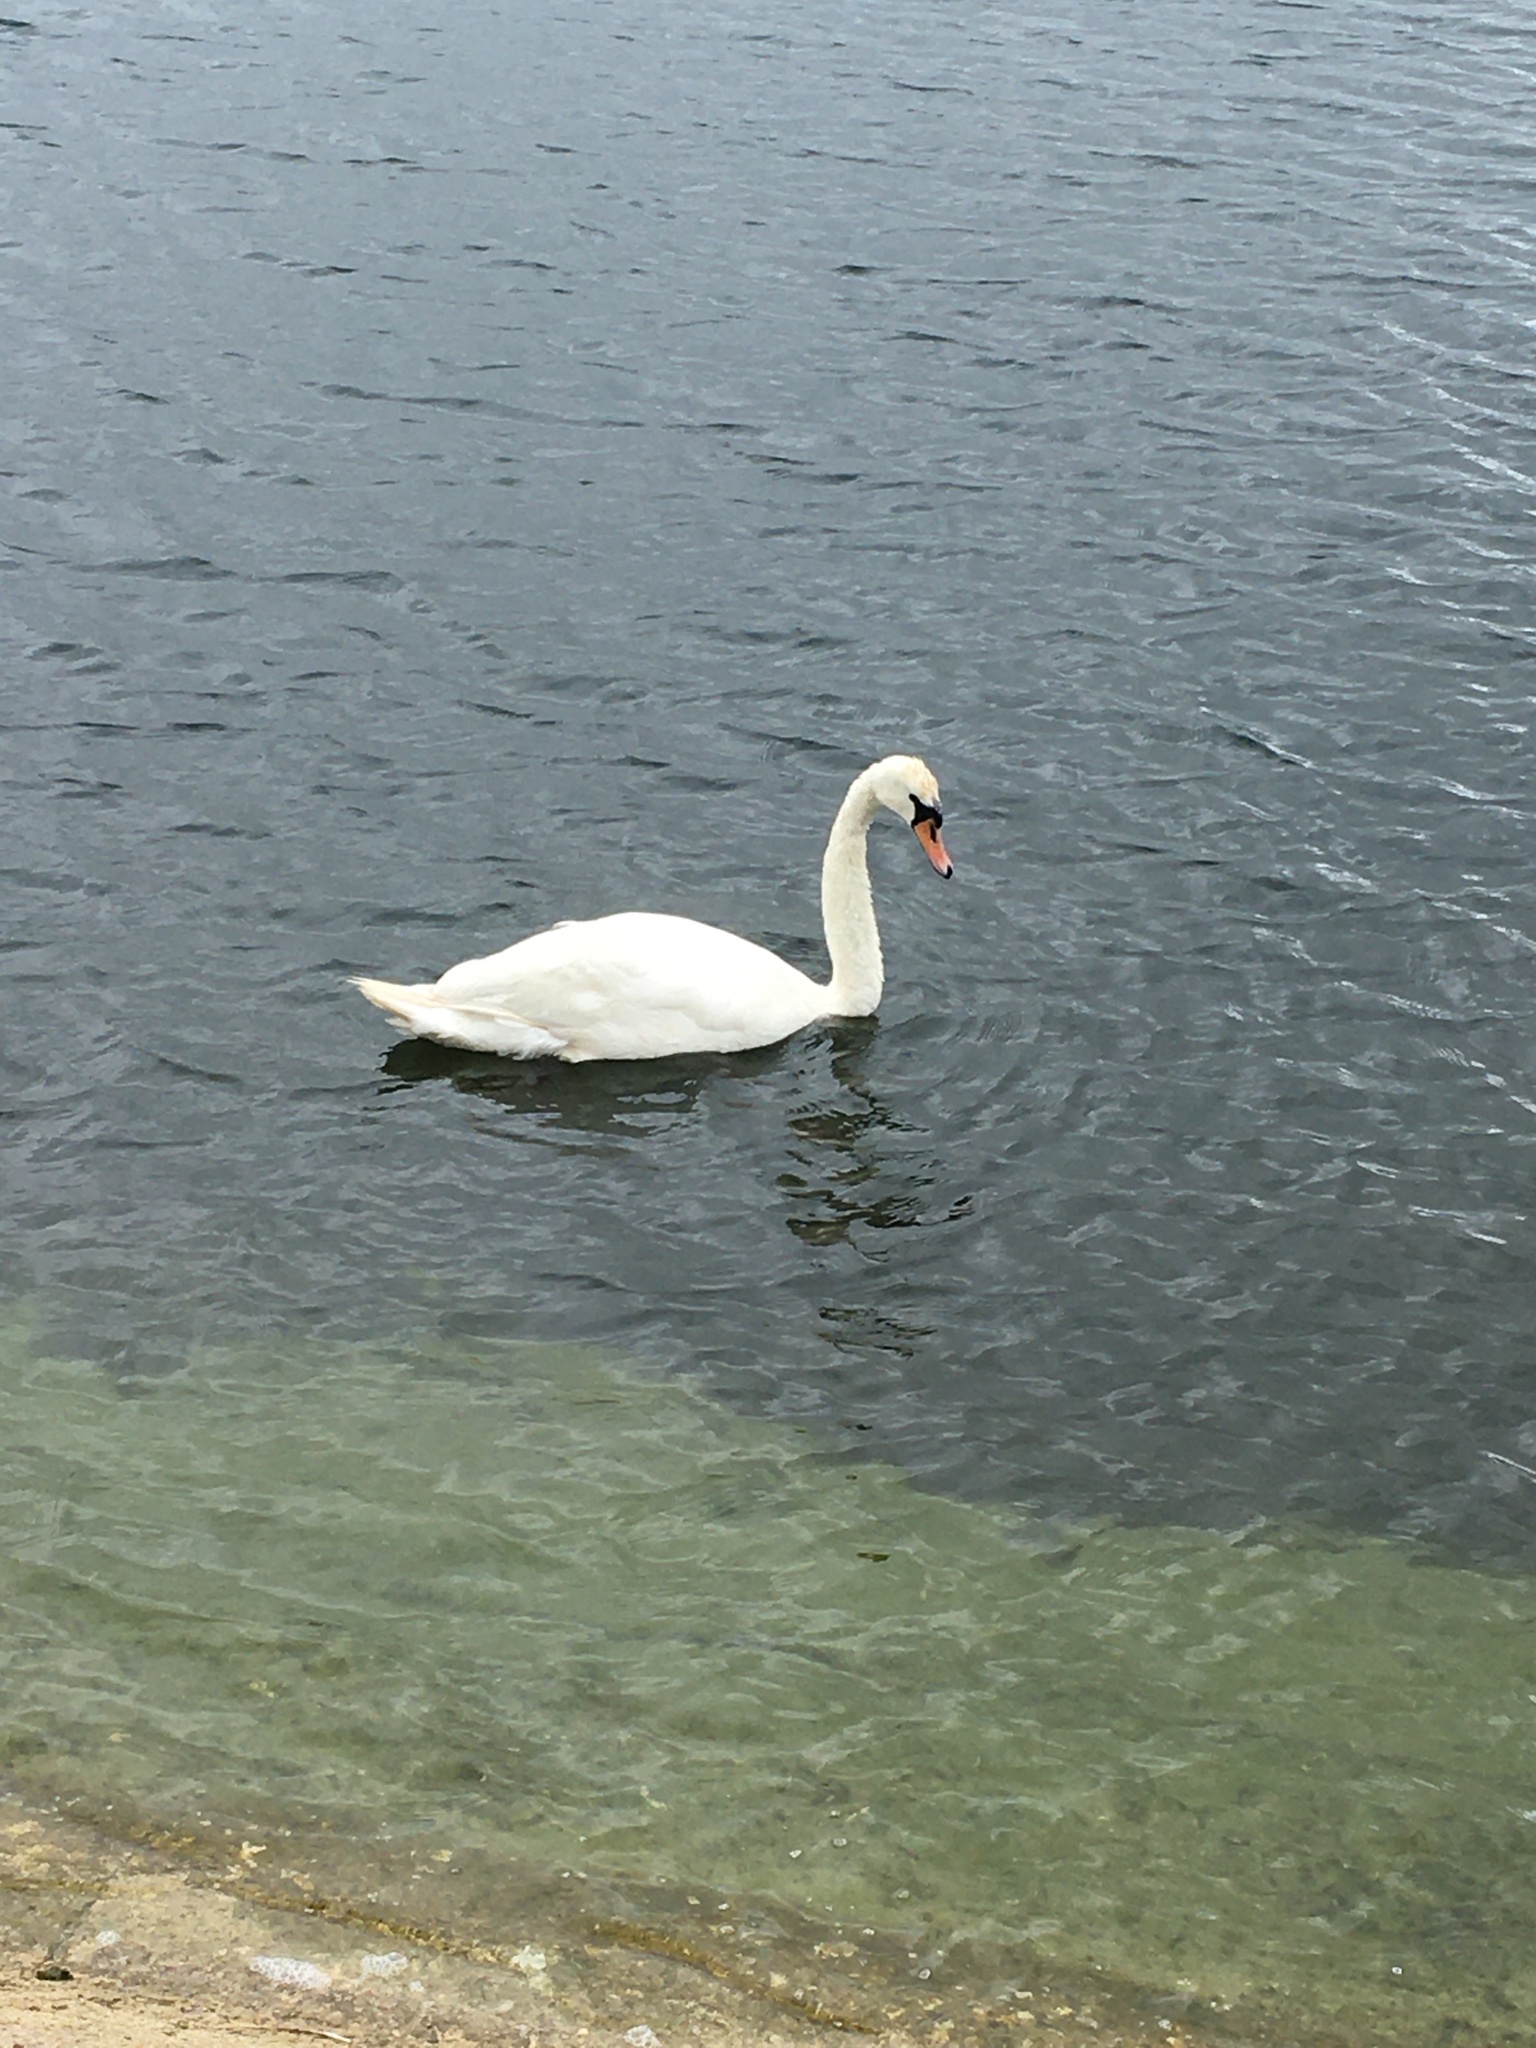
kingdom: Animalia
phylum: Chordata
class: Aves
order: Anseriformes
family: Anatidae
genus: Cygnus
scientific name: Cygnus olor
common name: Mute swan
